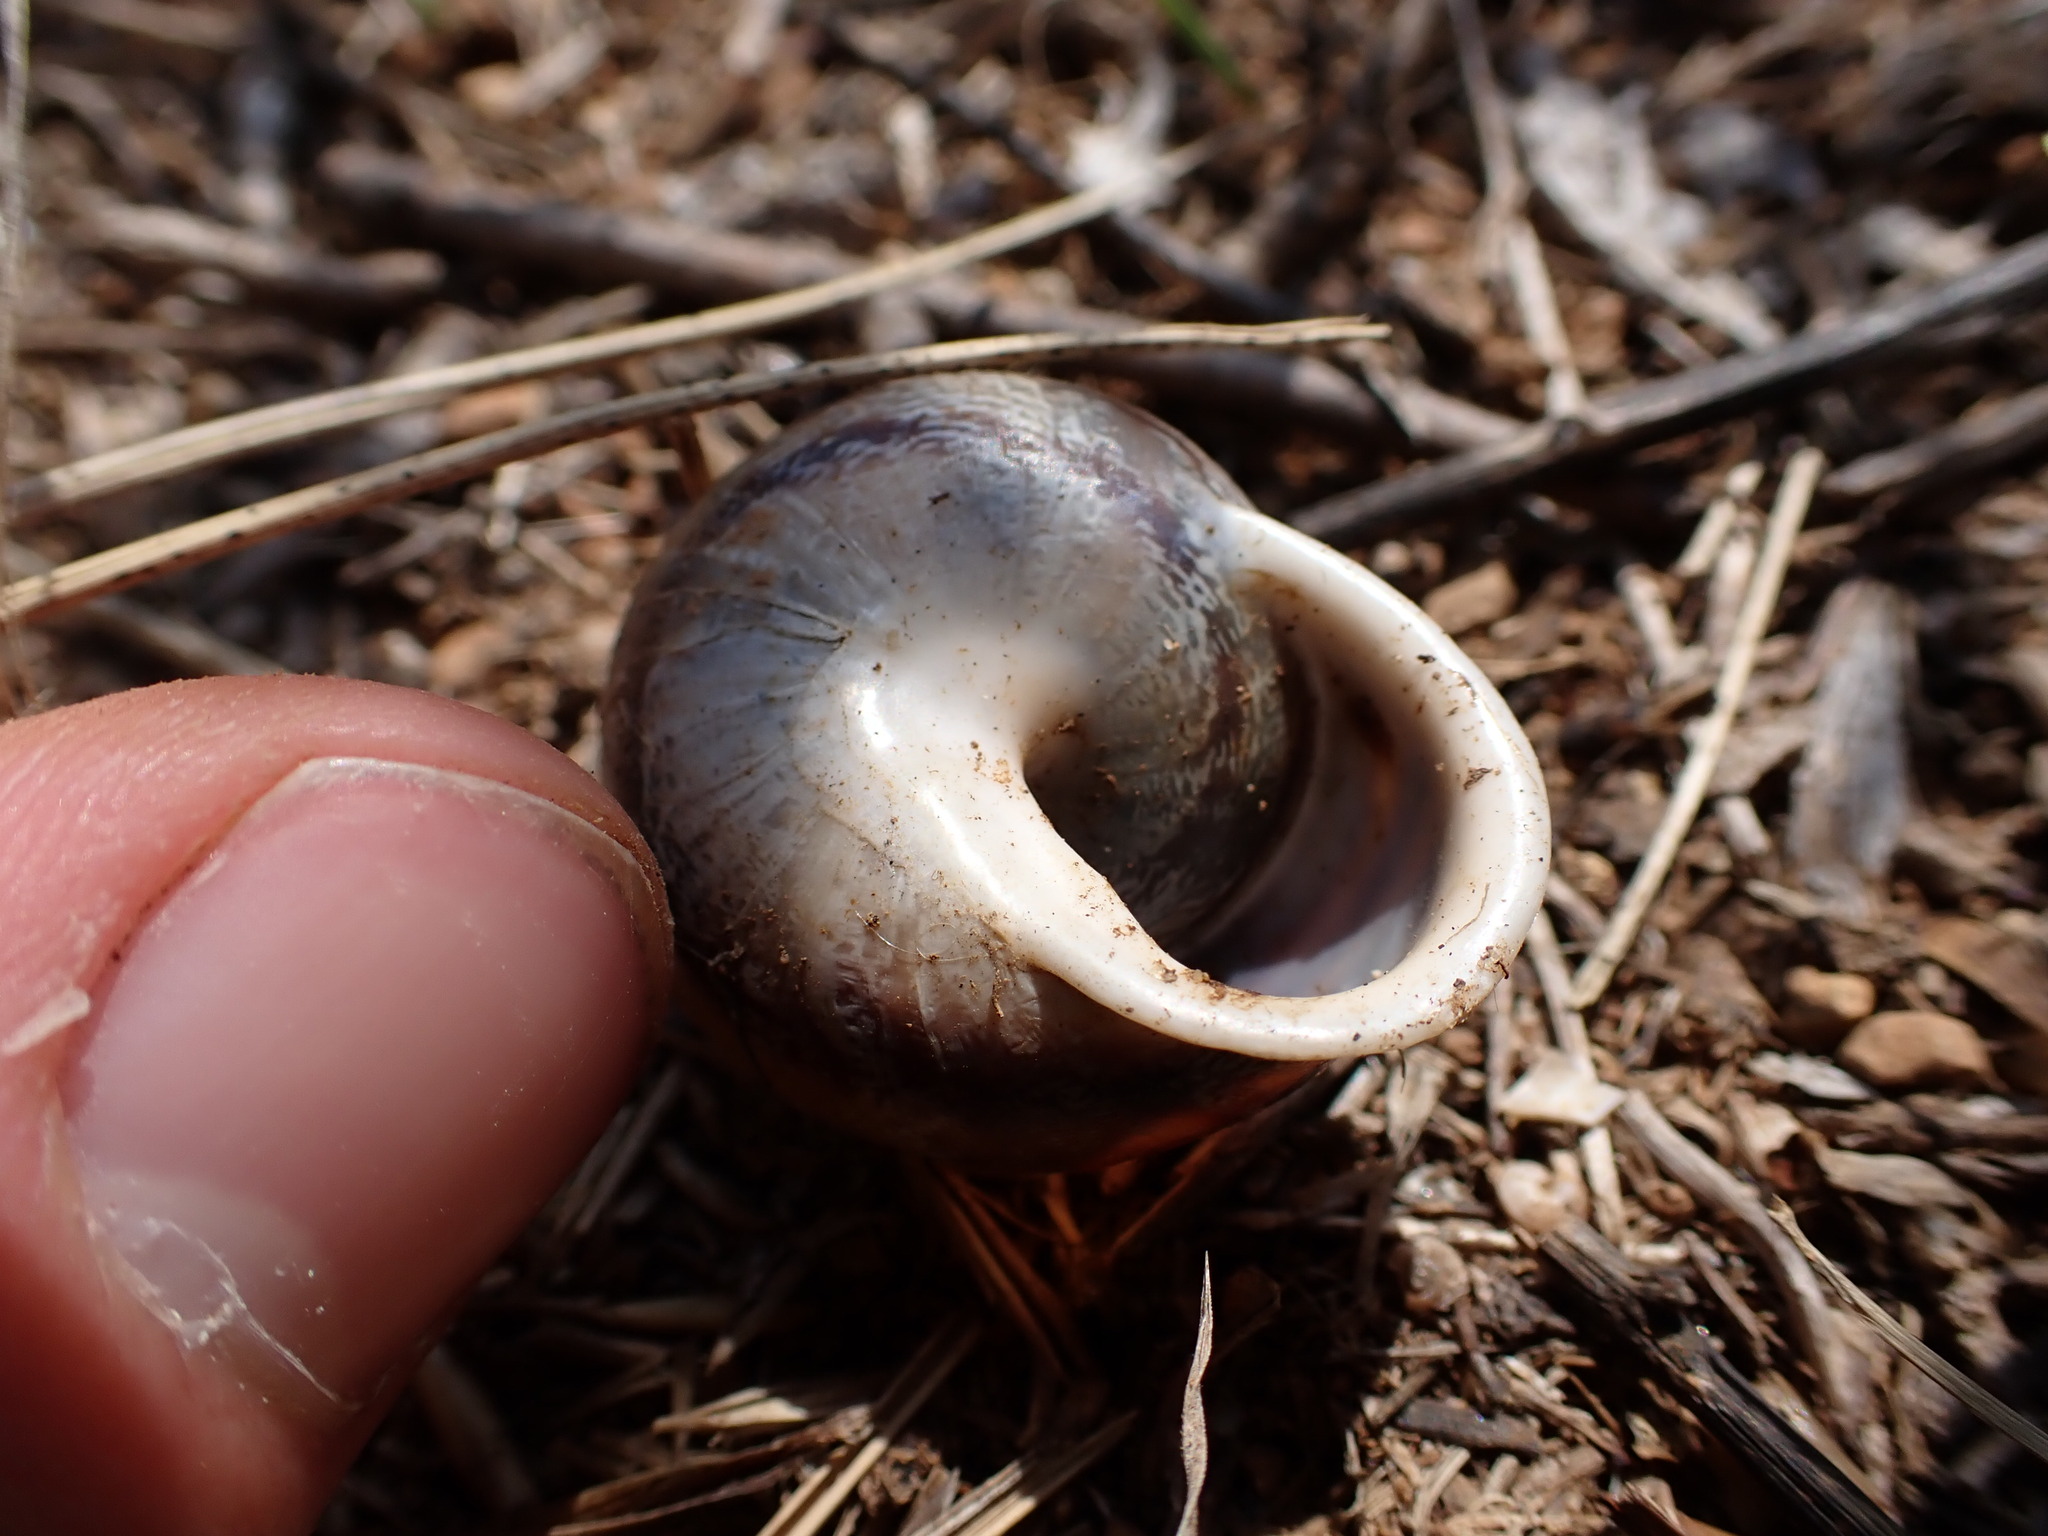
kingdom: Animalia
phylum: Mollusca
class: Gastropoda
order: Stylommatophora
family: Helicidae
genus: Eobania
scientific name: Eobania vermiculata
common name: Chocolateband snail
